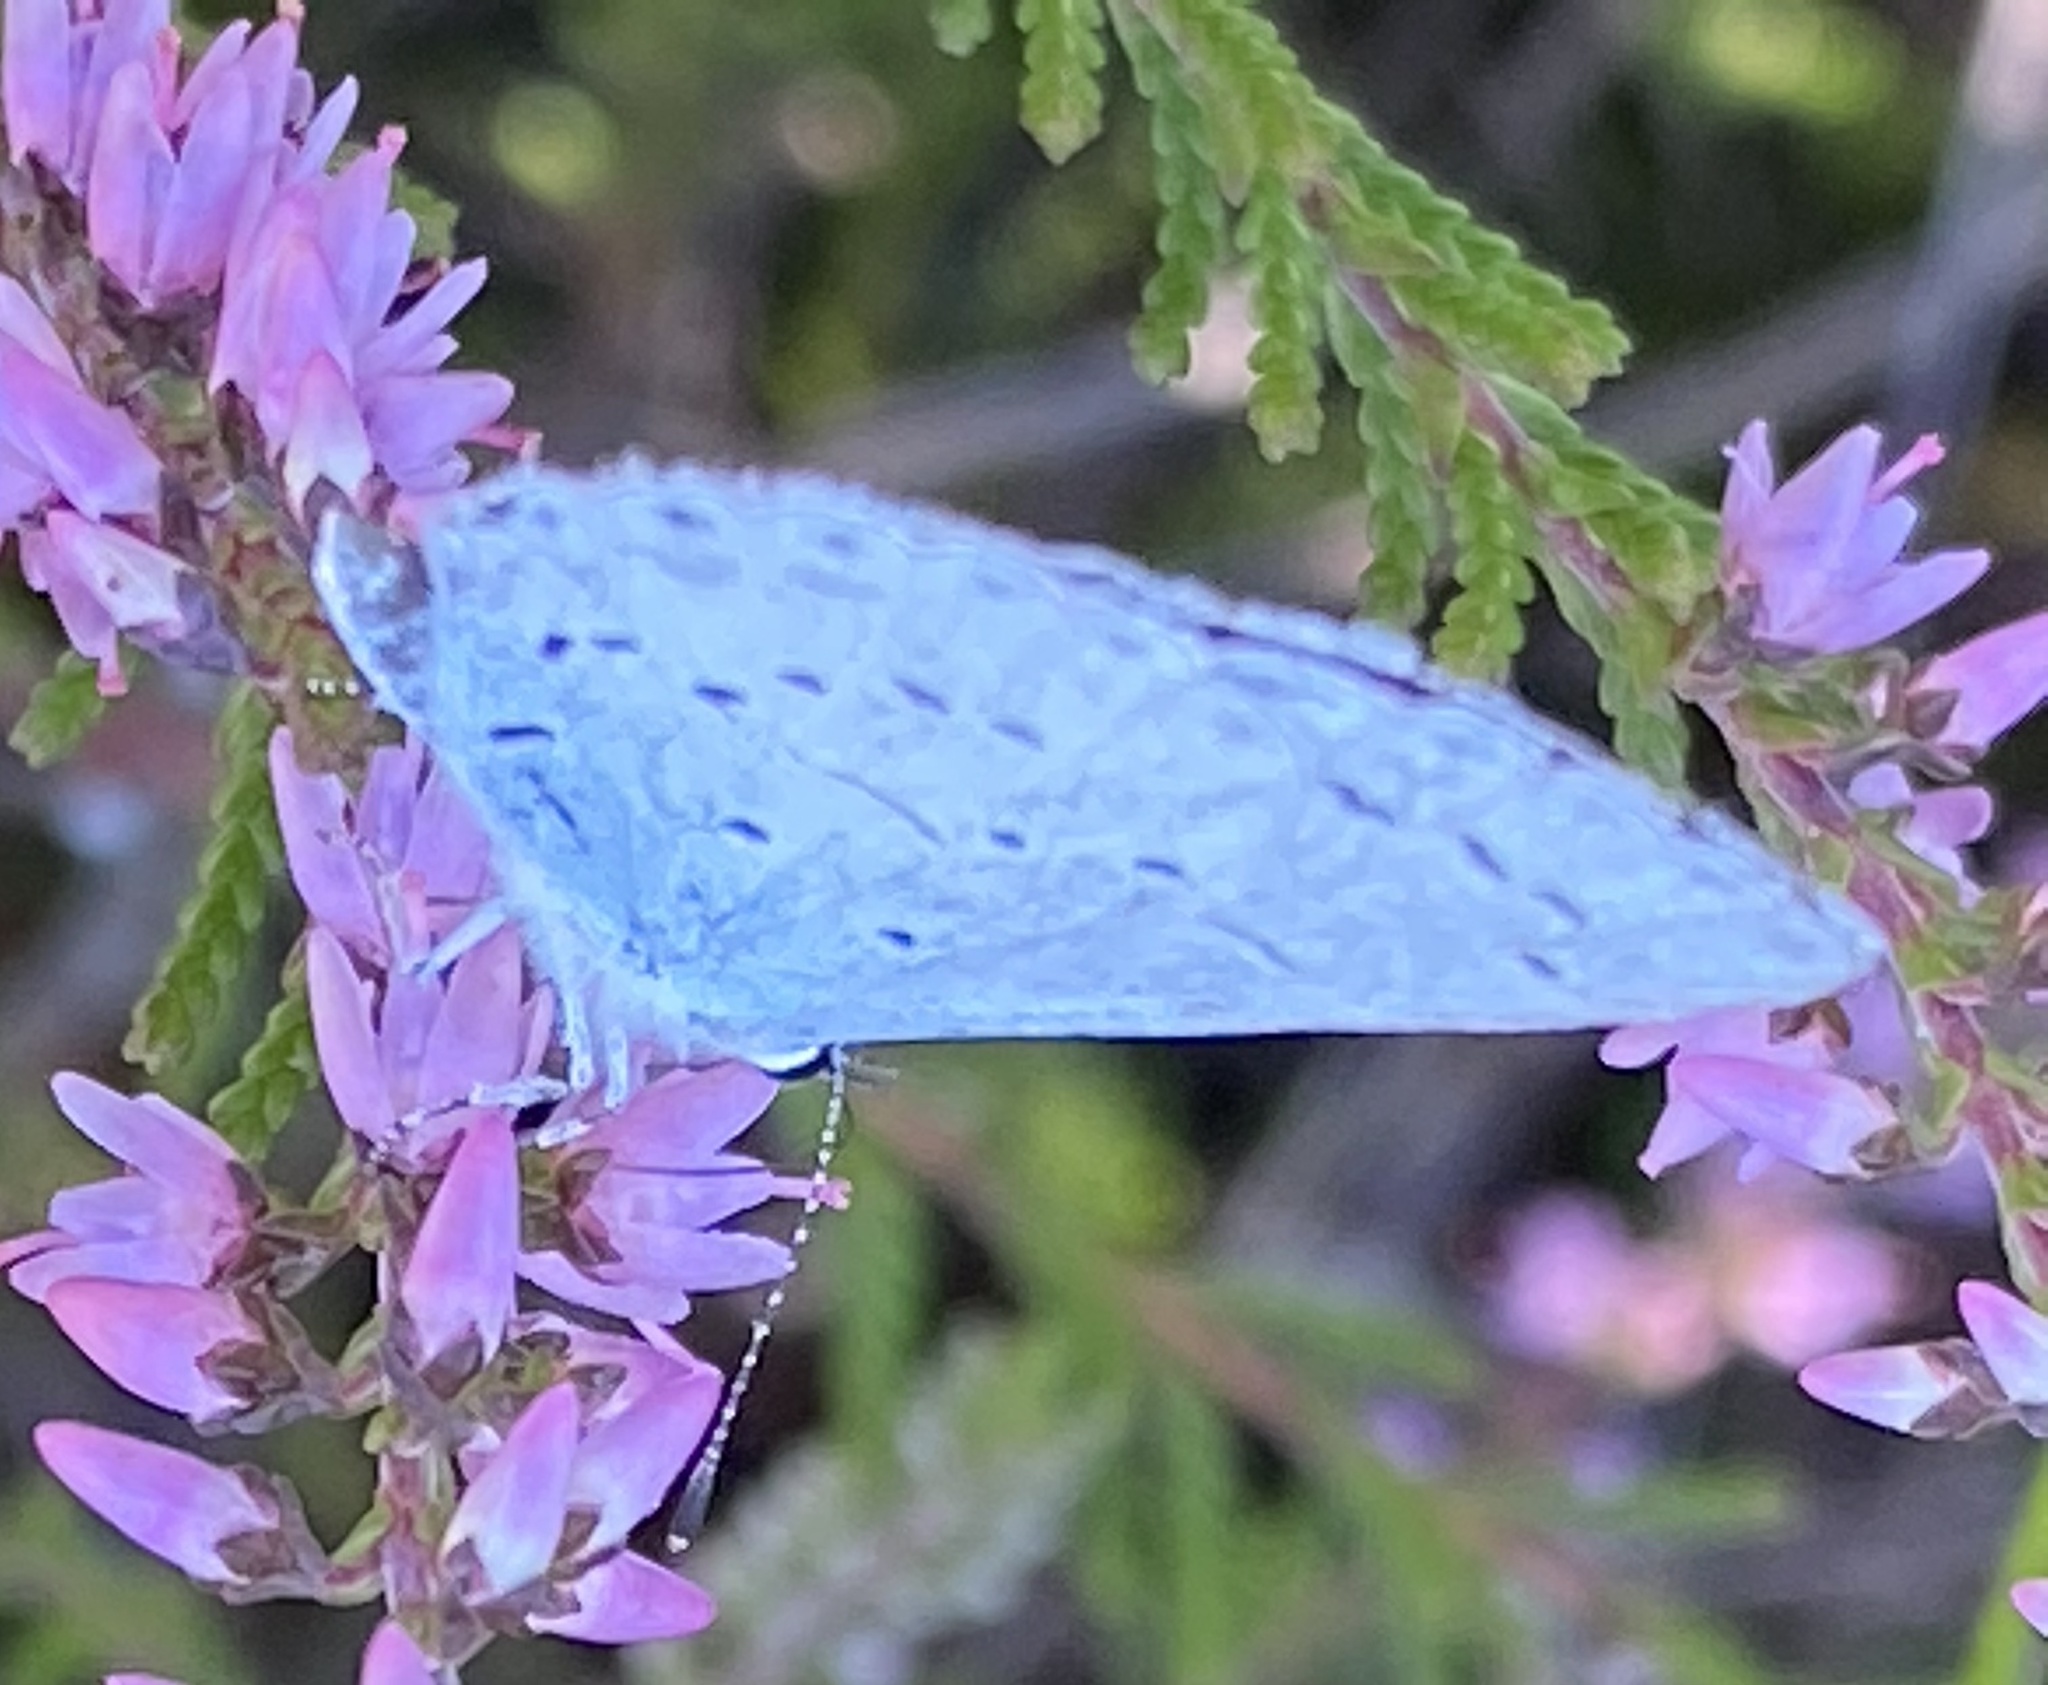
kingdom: Animalia
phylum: Arthropoda
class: Insecta
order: Lepidoptera
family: Lycaenidae
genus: Celastrina
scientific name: Celastrina argiolus
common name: Holly blue
